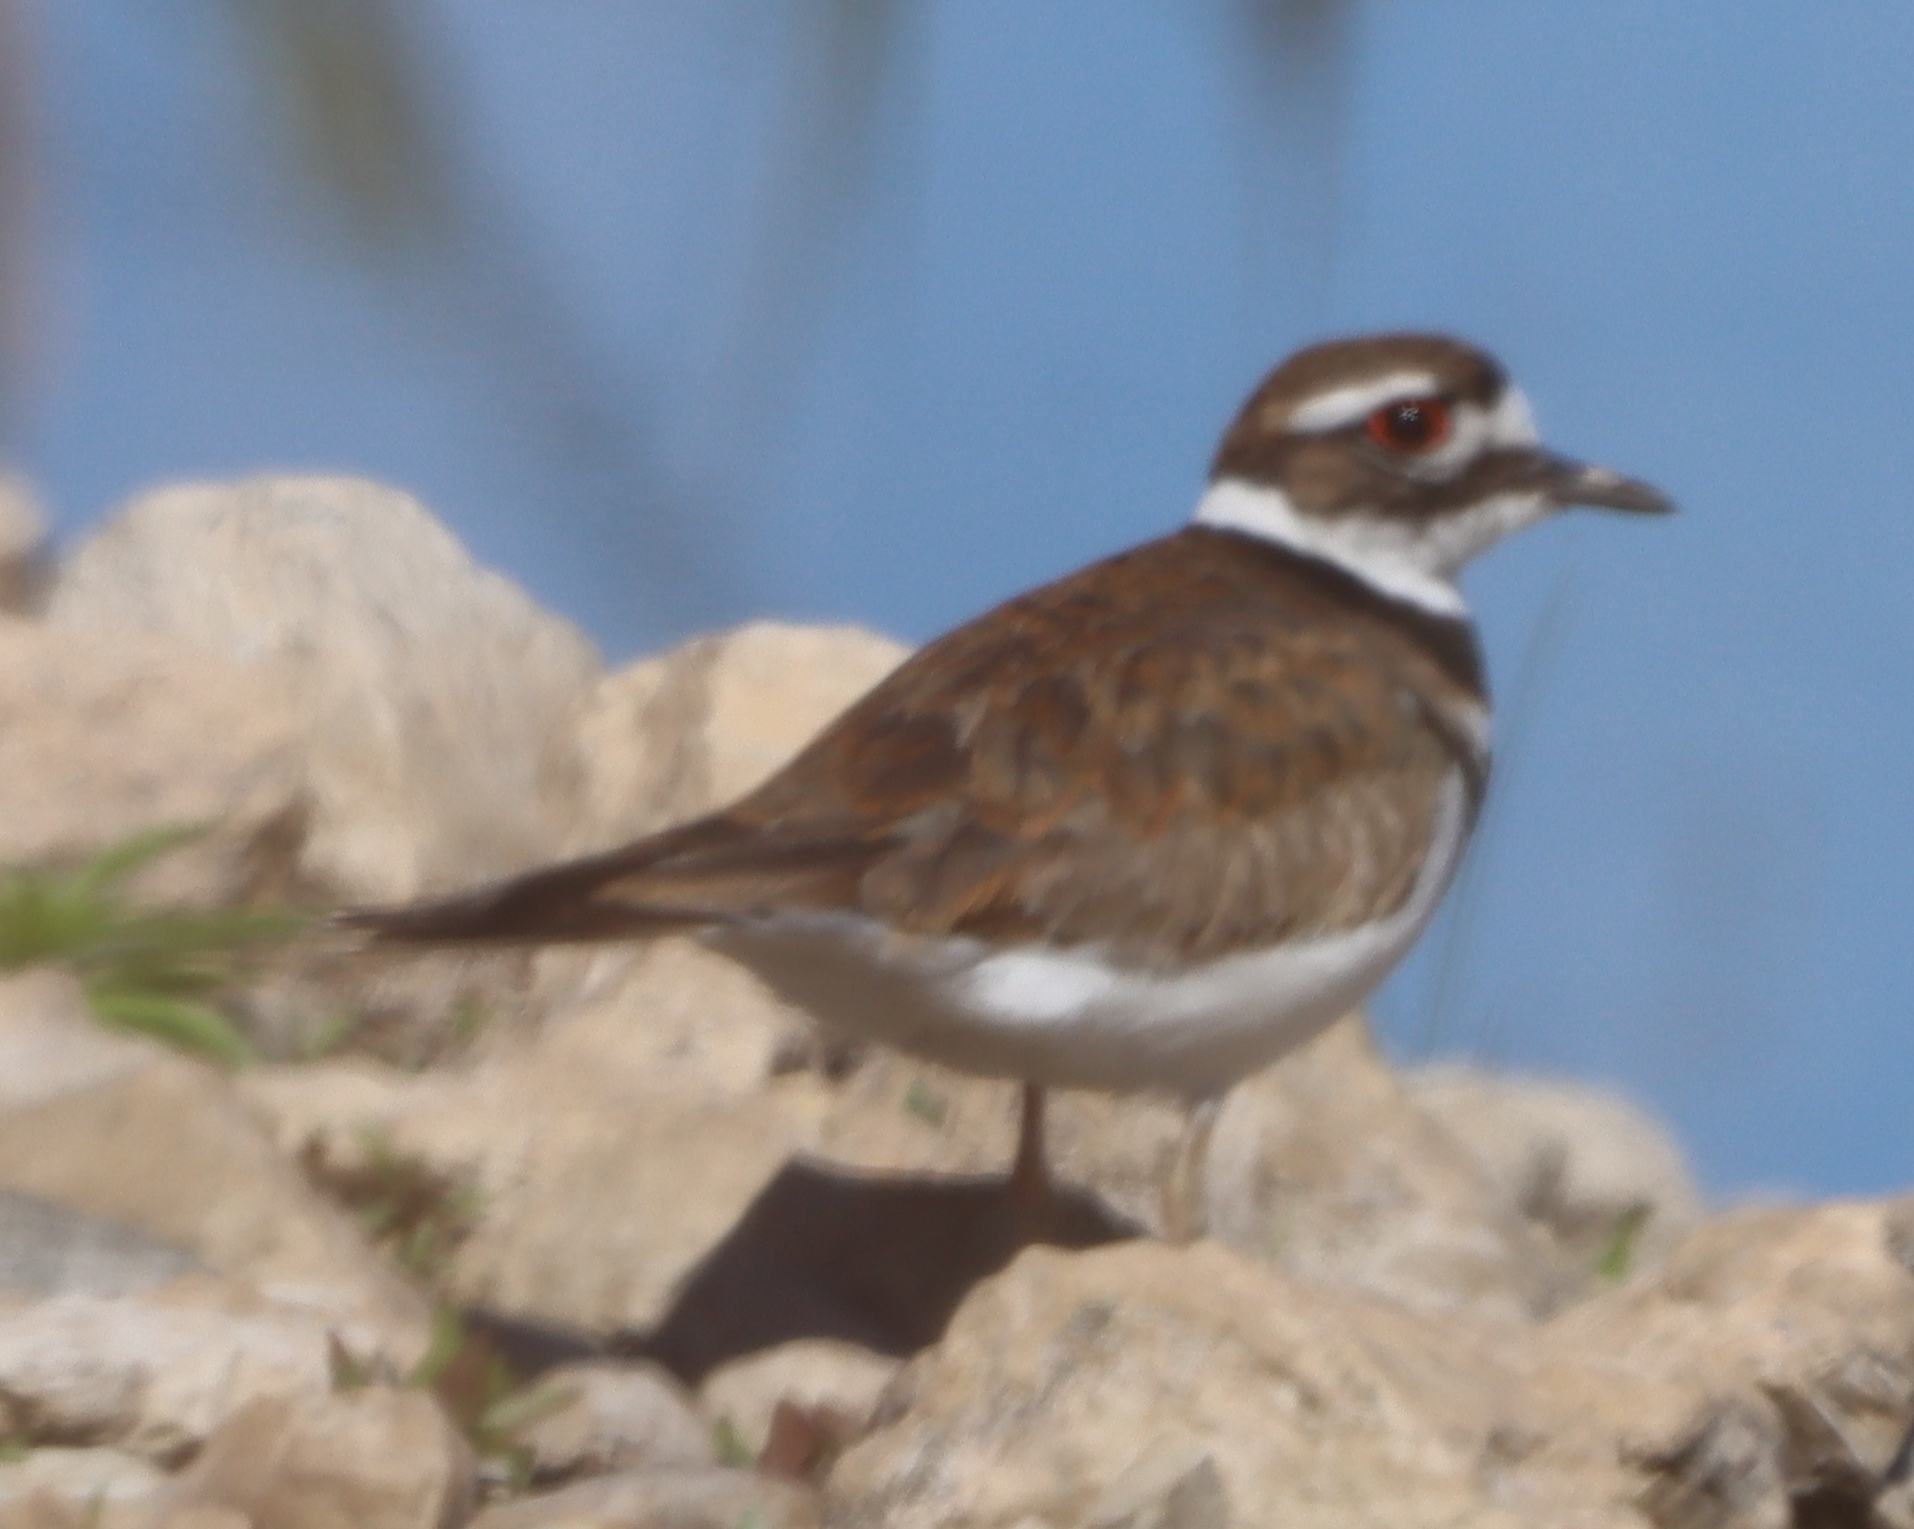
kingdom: Animalia
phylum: Chordata
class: Aves
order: Charadriiformes
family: Charadriidae
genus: Charadrius
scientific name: Charadrius vociferus
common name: Killdeer
